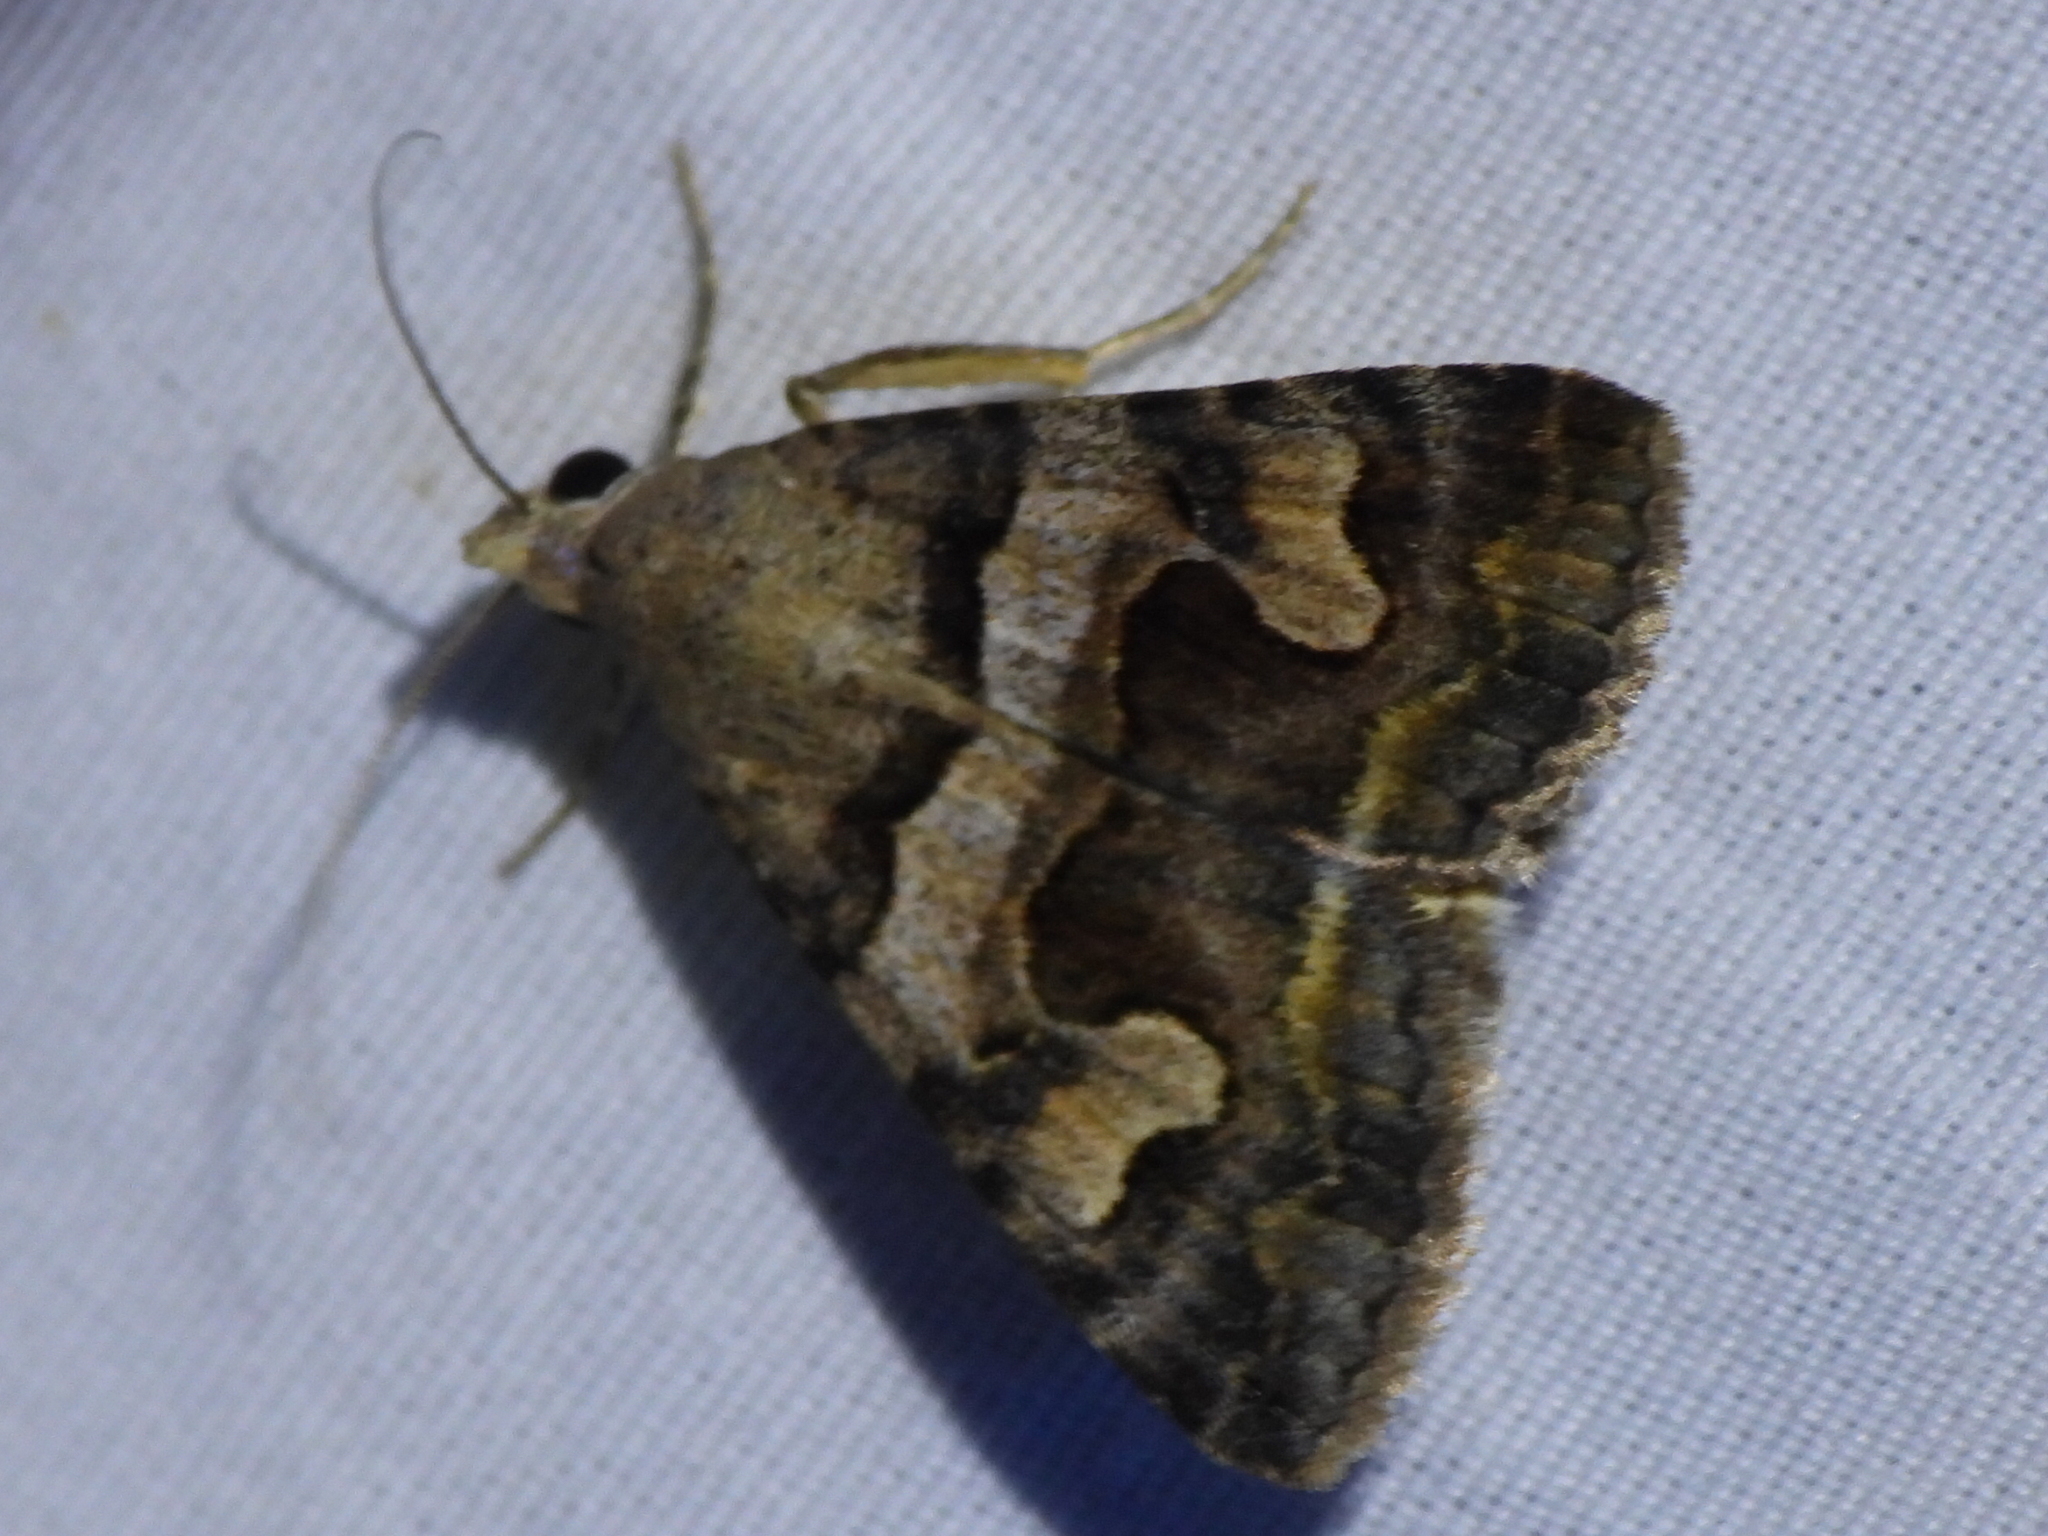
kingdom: Animalia
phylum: Arthropoda
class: Insecta
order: Lepidoptera
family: Erebidae
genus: Bulia
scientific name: Bulia deducta
